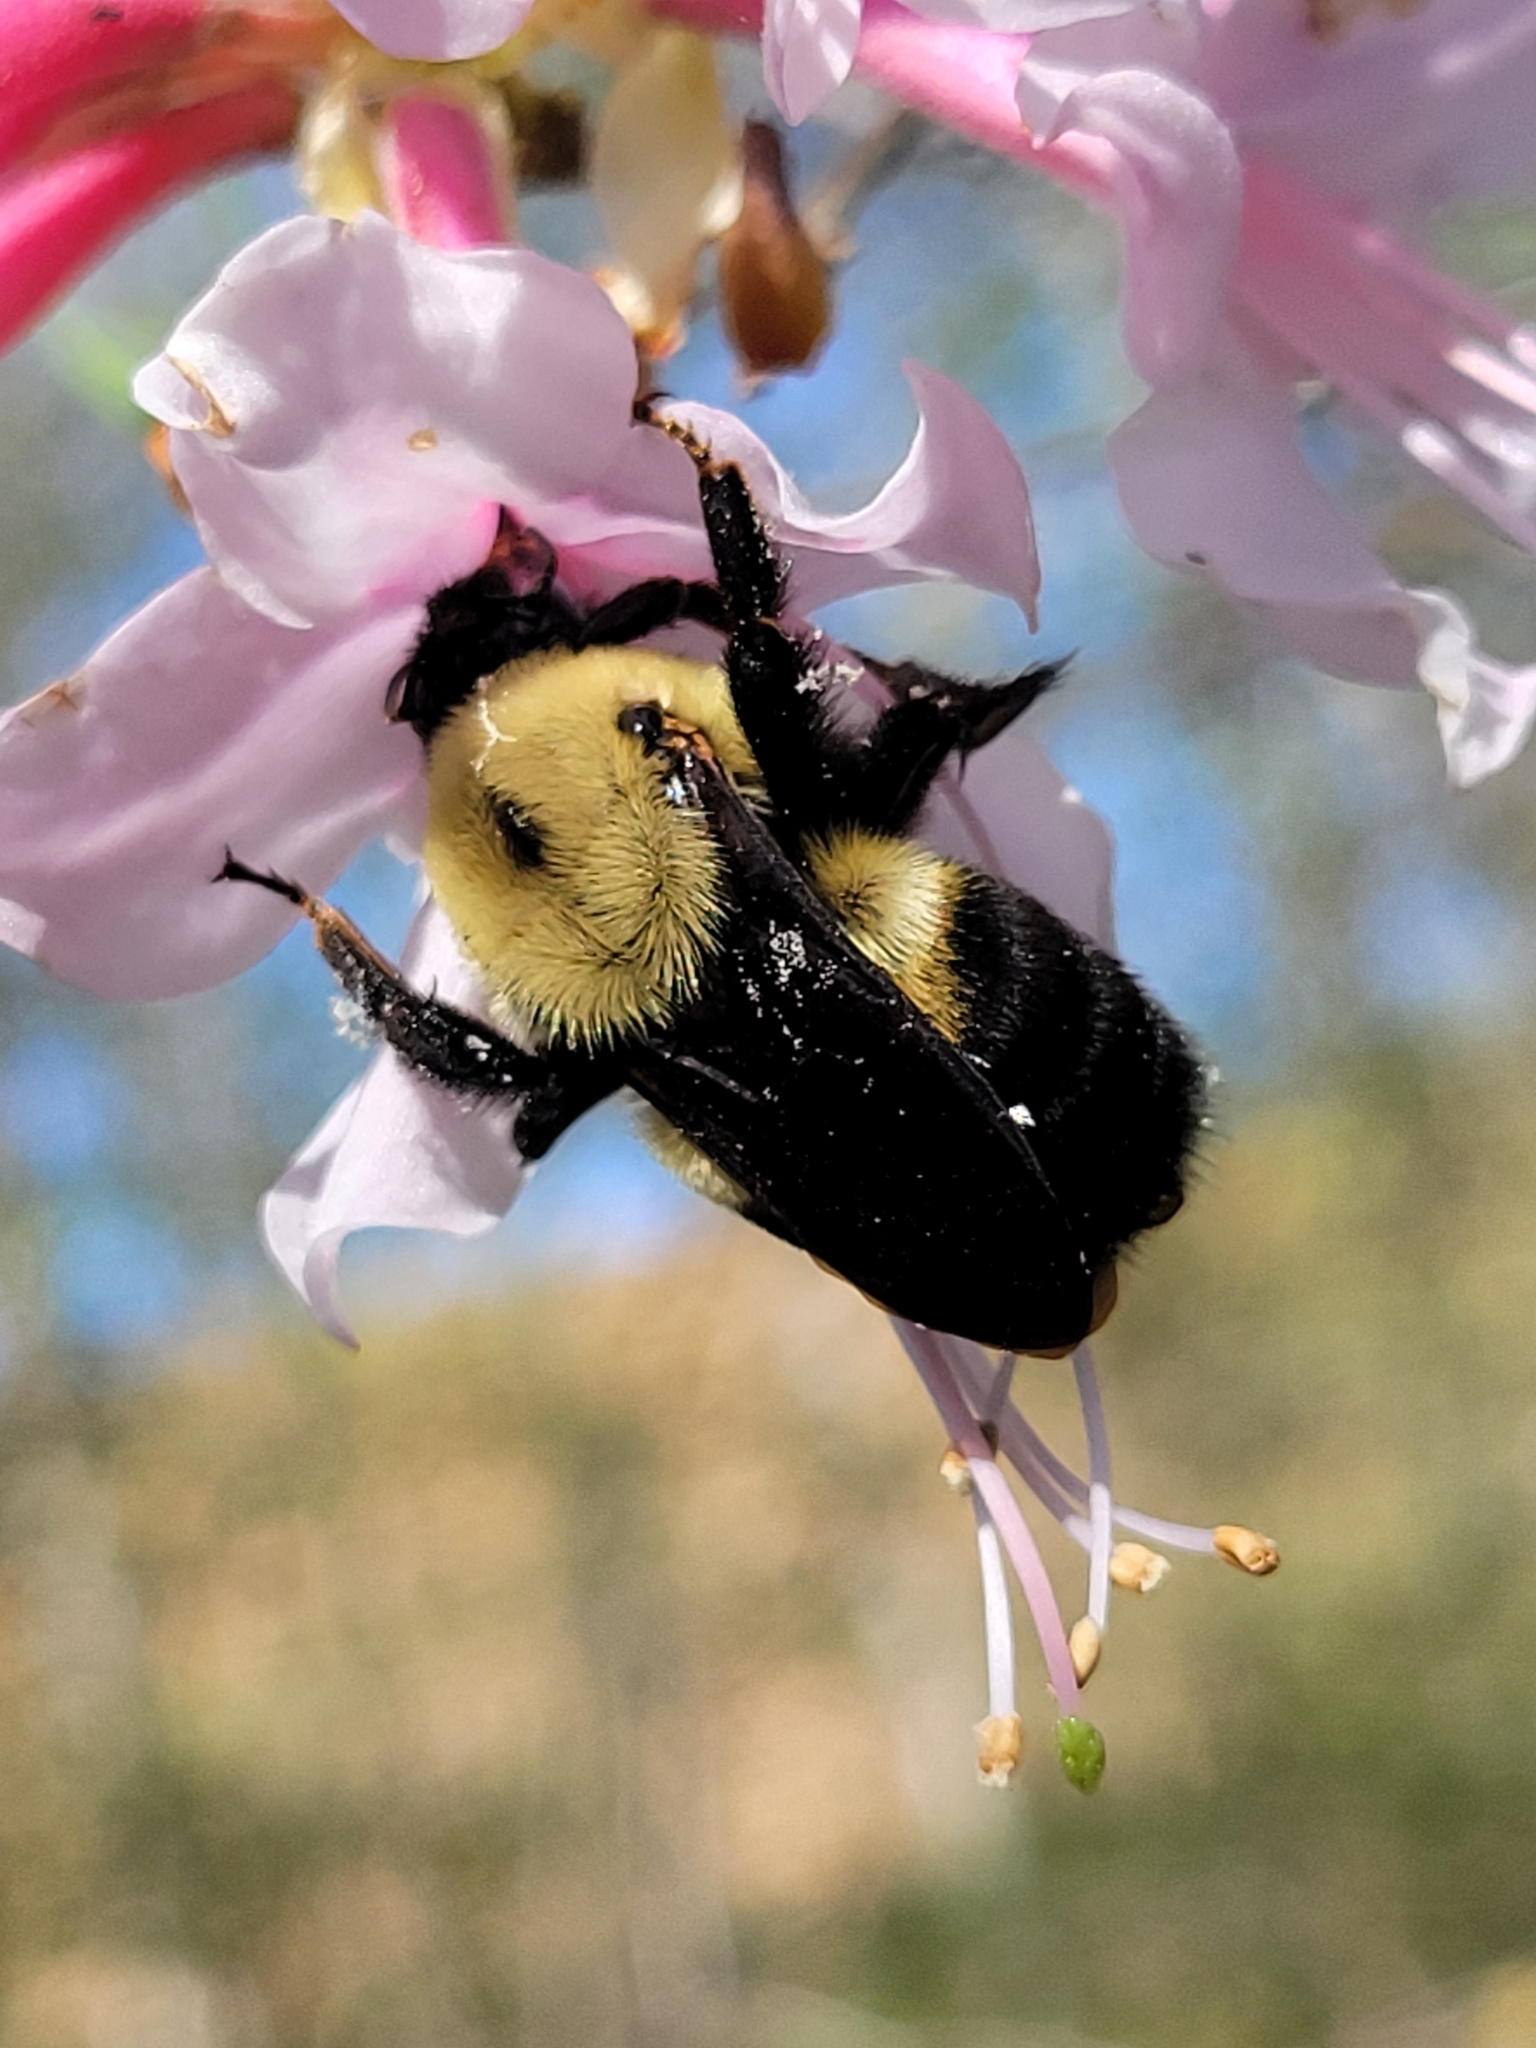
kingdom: Animalia
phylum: Arthropoda
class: Insecta
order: Hymenoptera
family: Apidae
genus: Bombus
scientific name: Bombus griseocollis
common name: Brown-belted bumble bee
